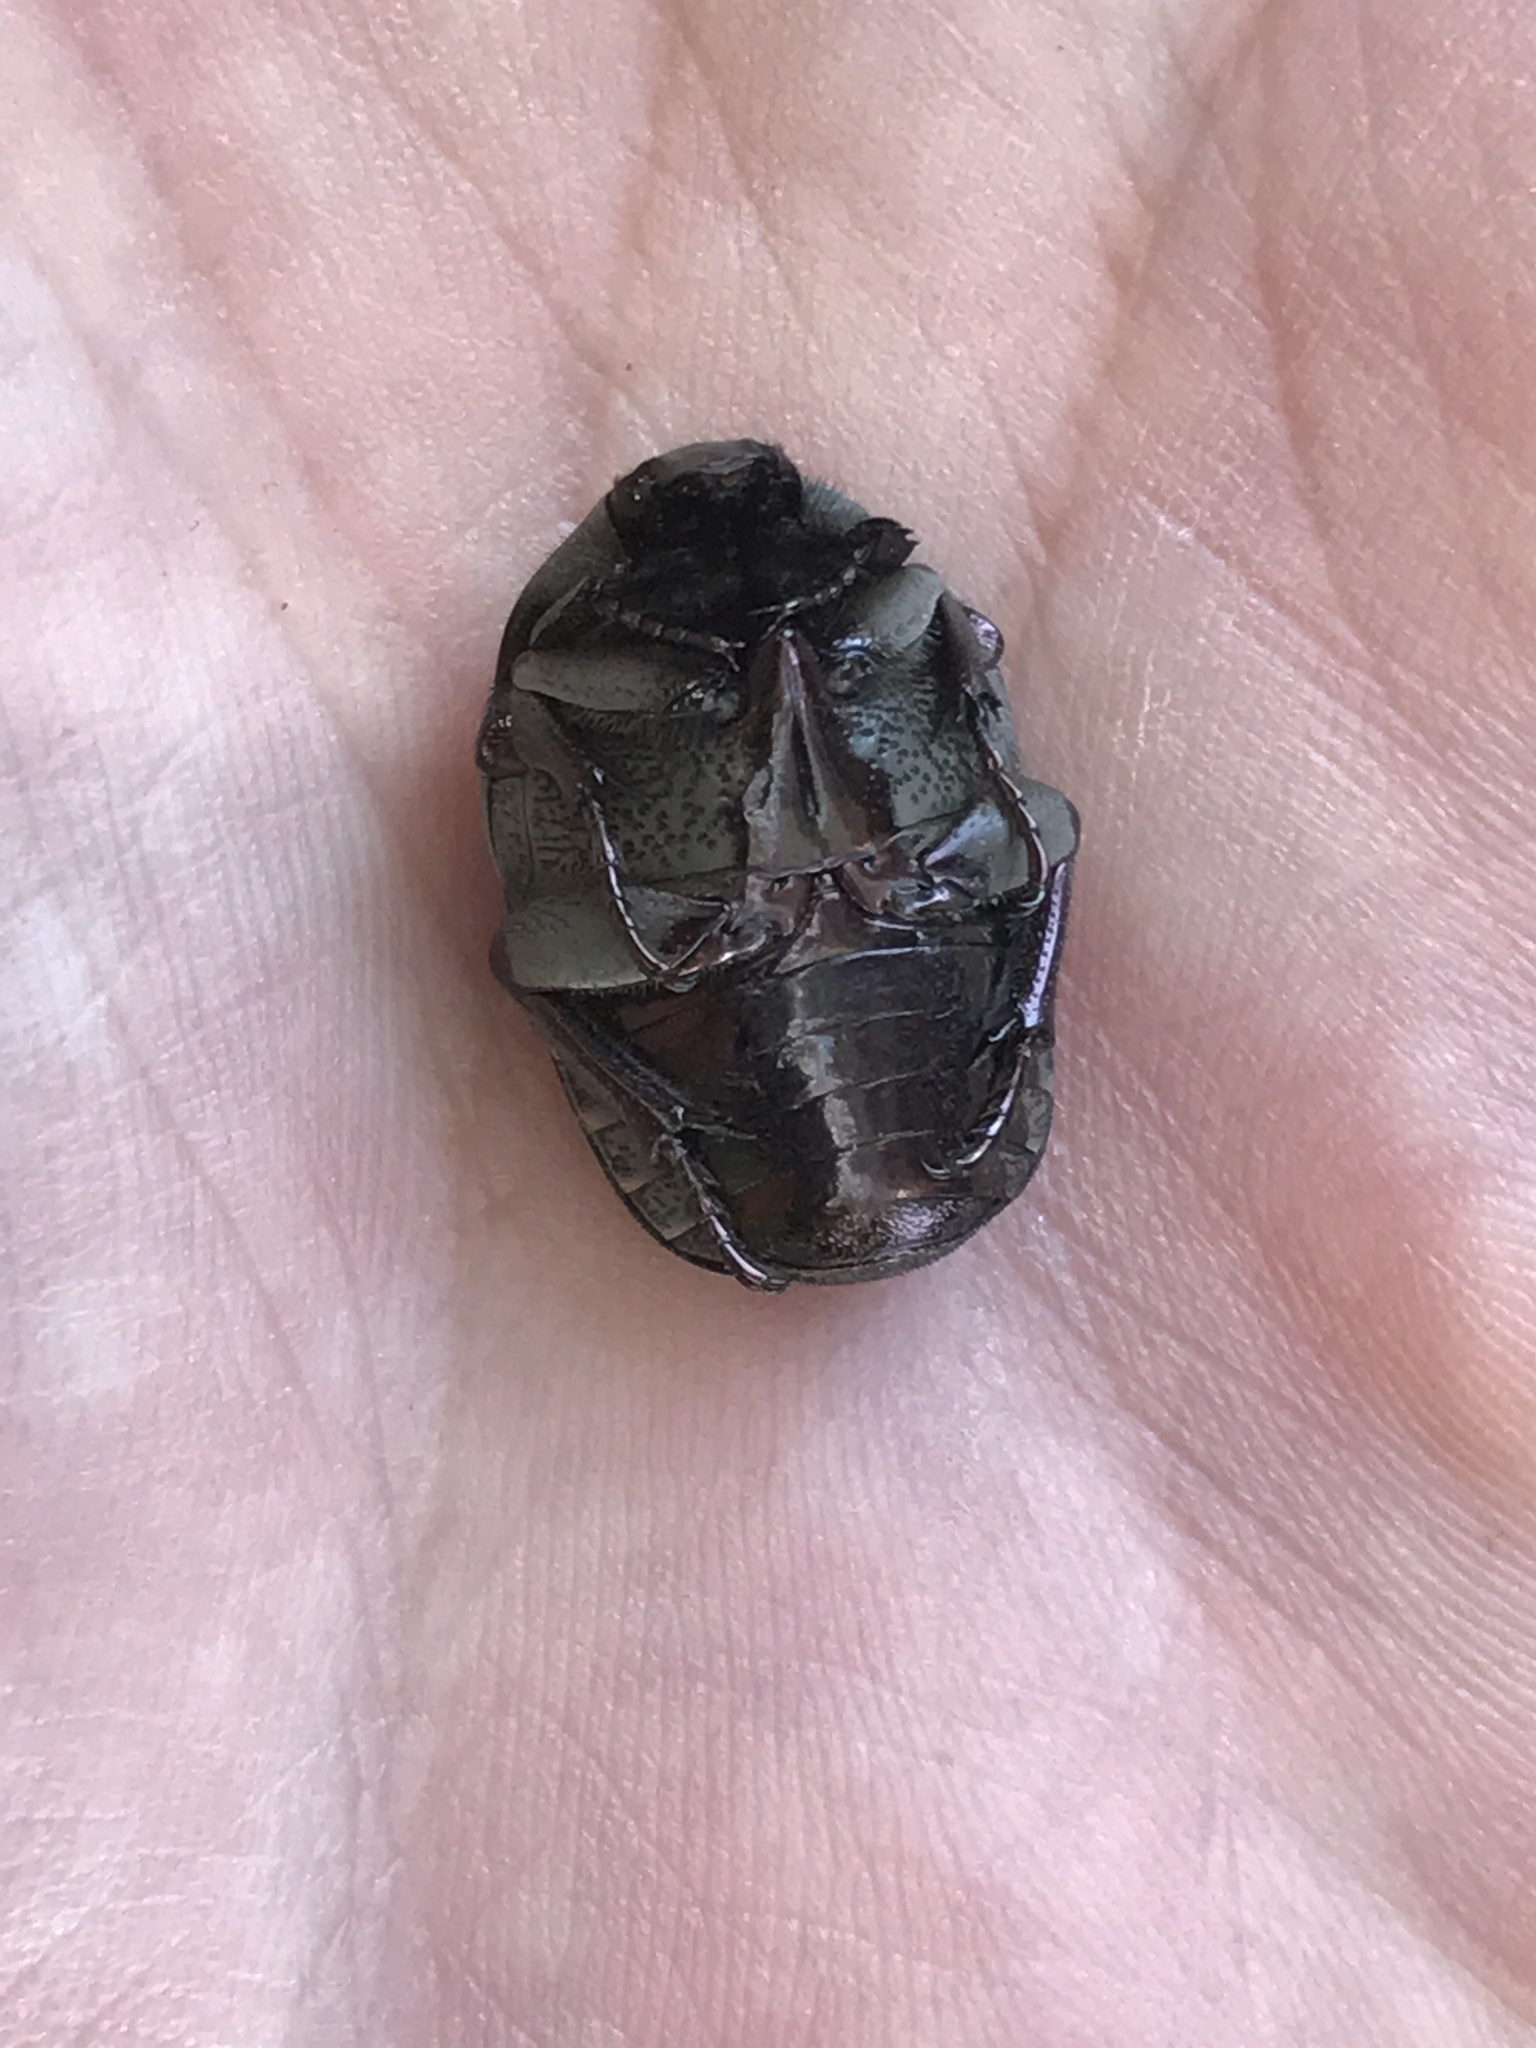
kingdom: Animalia
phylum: Arthropoda
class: Insecta
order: Coleoptera
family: Scarabaeidae
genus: Gymnetis
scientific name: Gymnetis chalcipes
